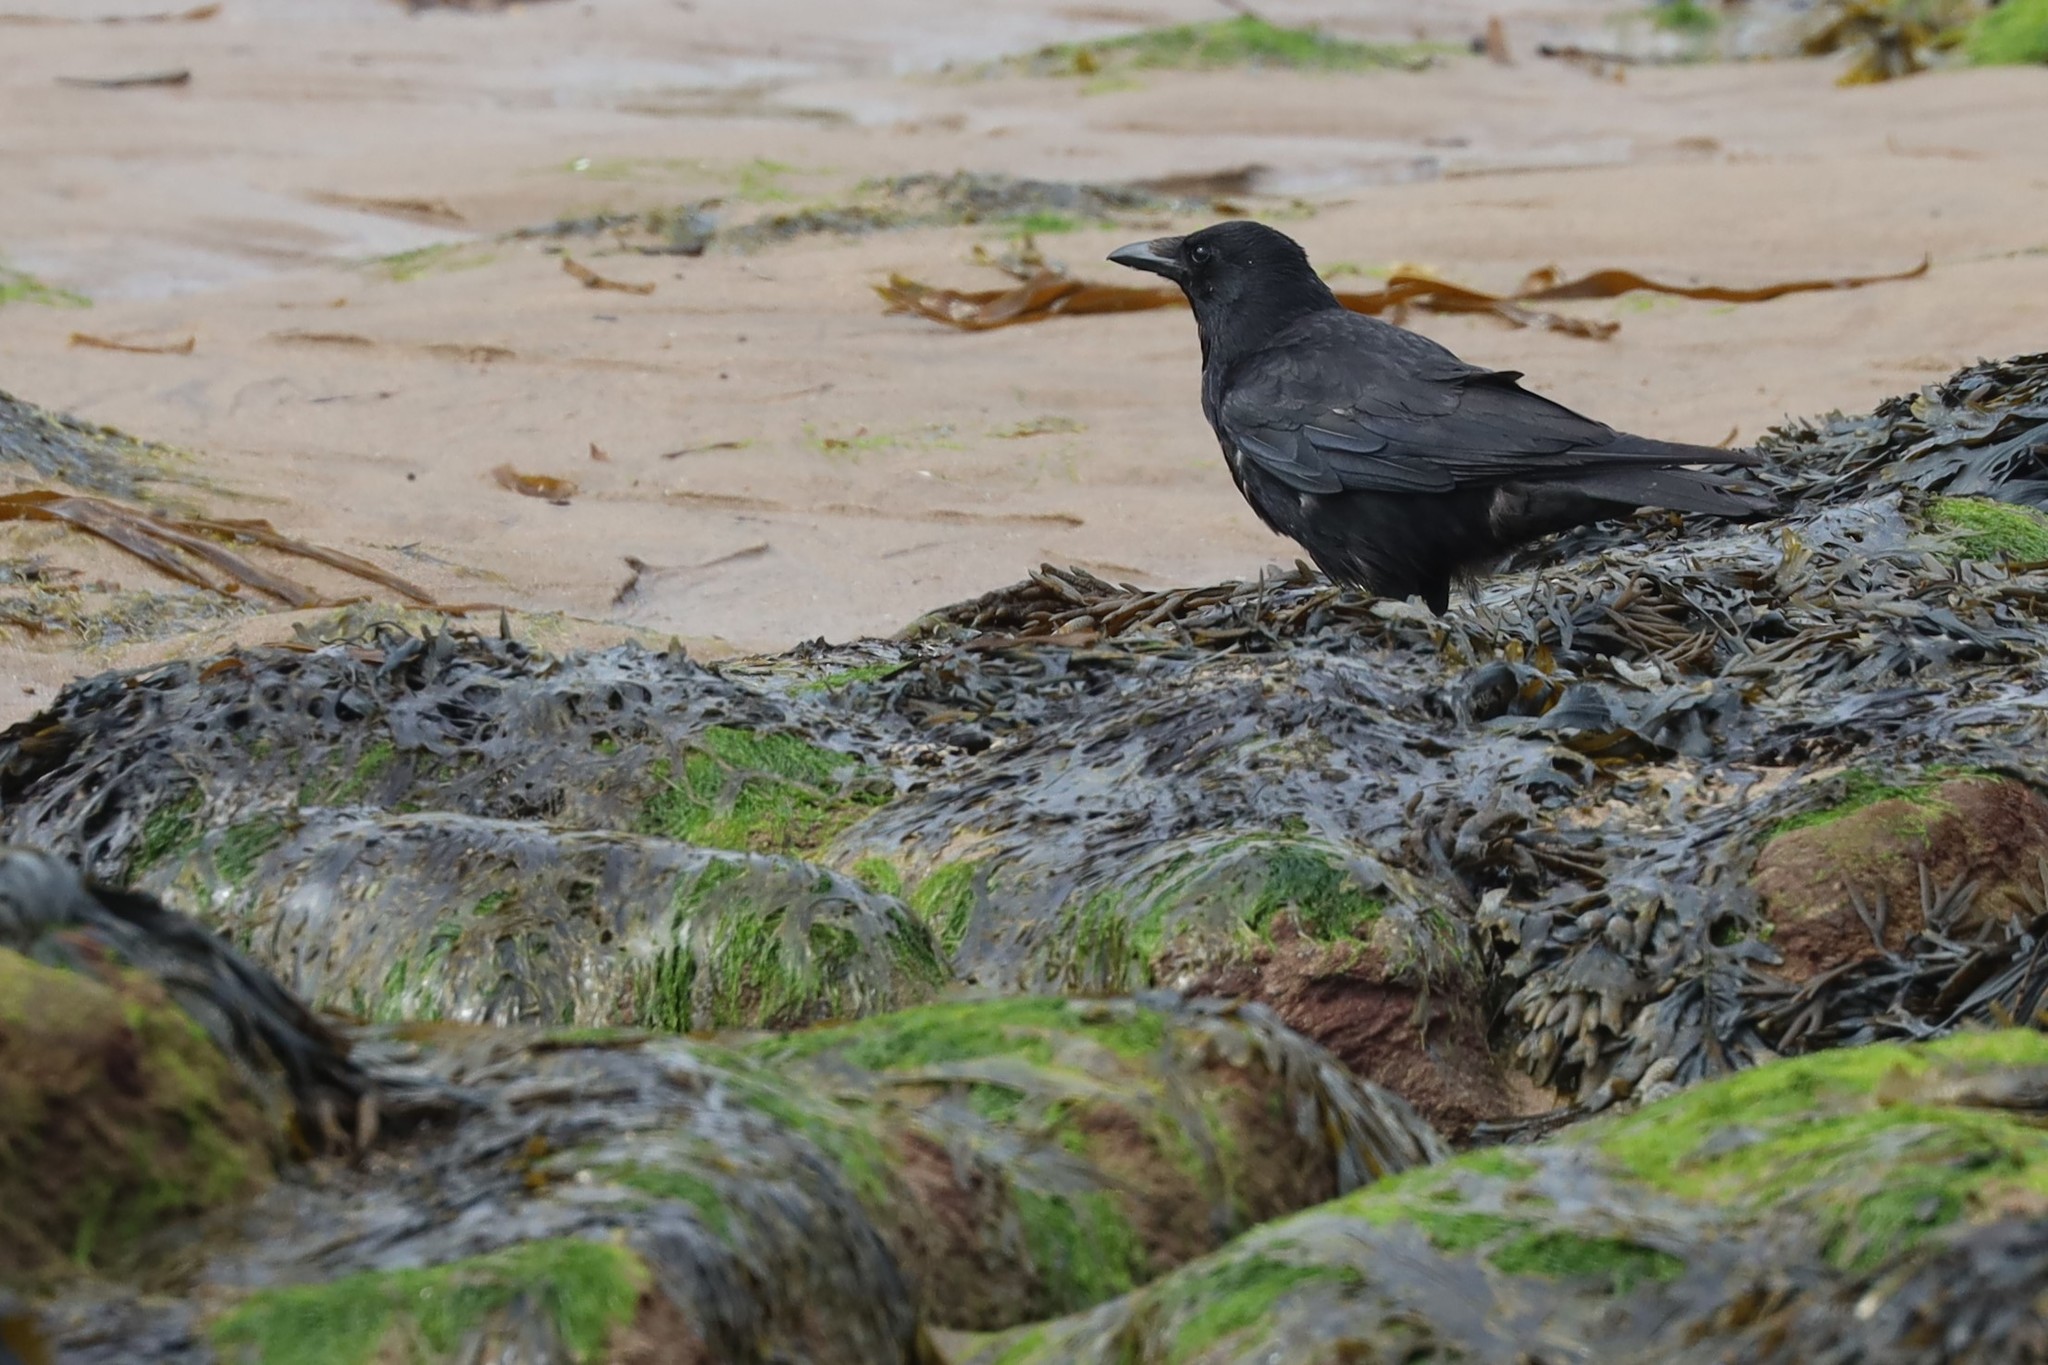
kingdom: Animalia
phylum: Chordata
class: Aves
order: Passeriformes
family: Corvidae
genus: Corvus
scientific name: Corvus corone
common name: Carrion crow
